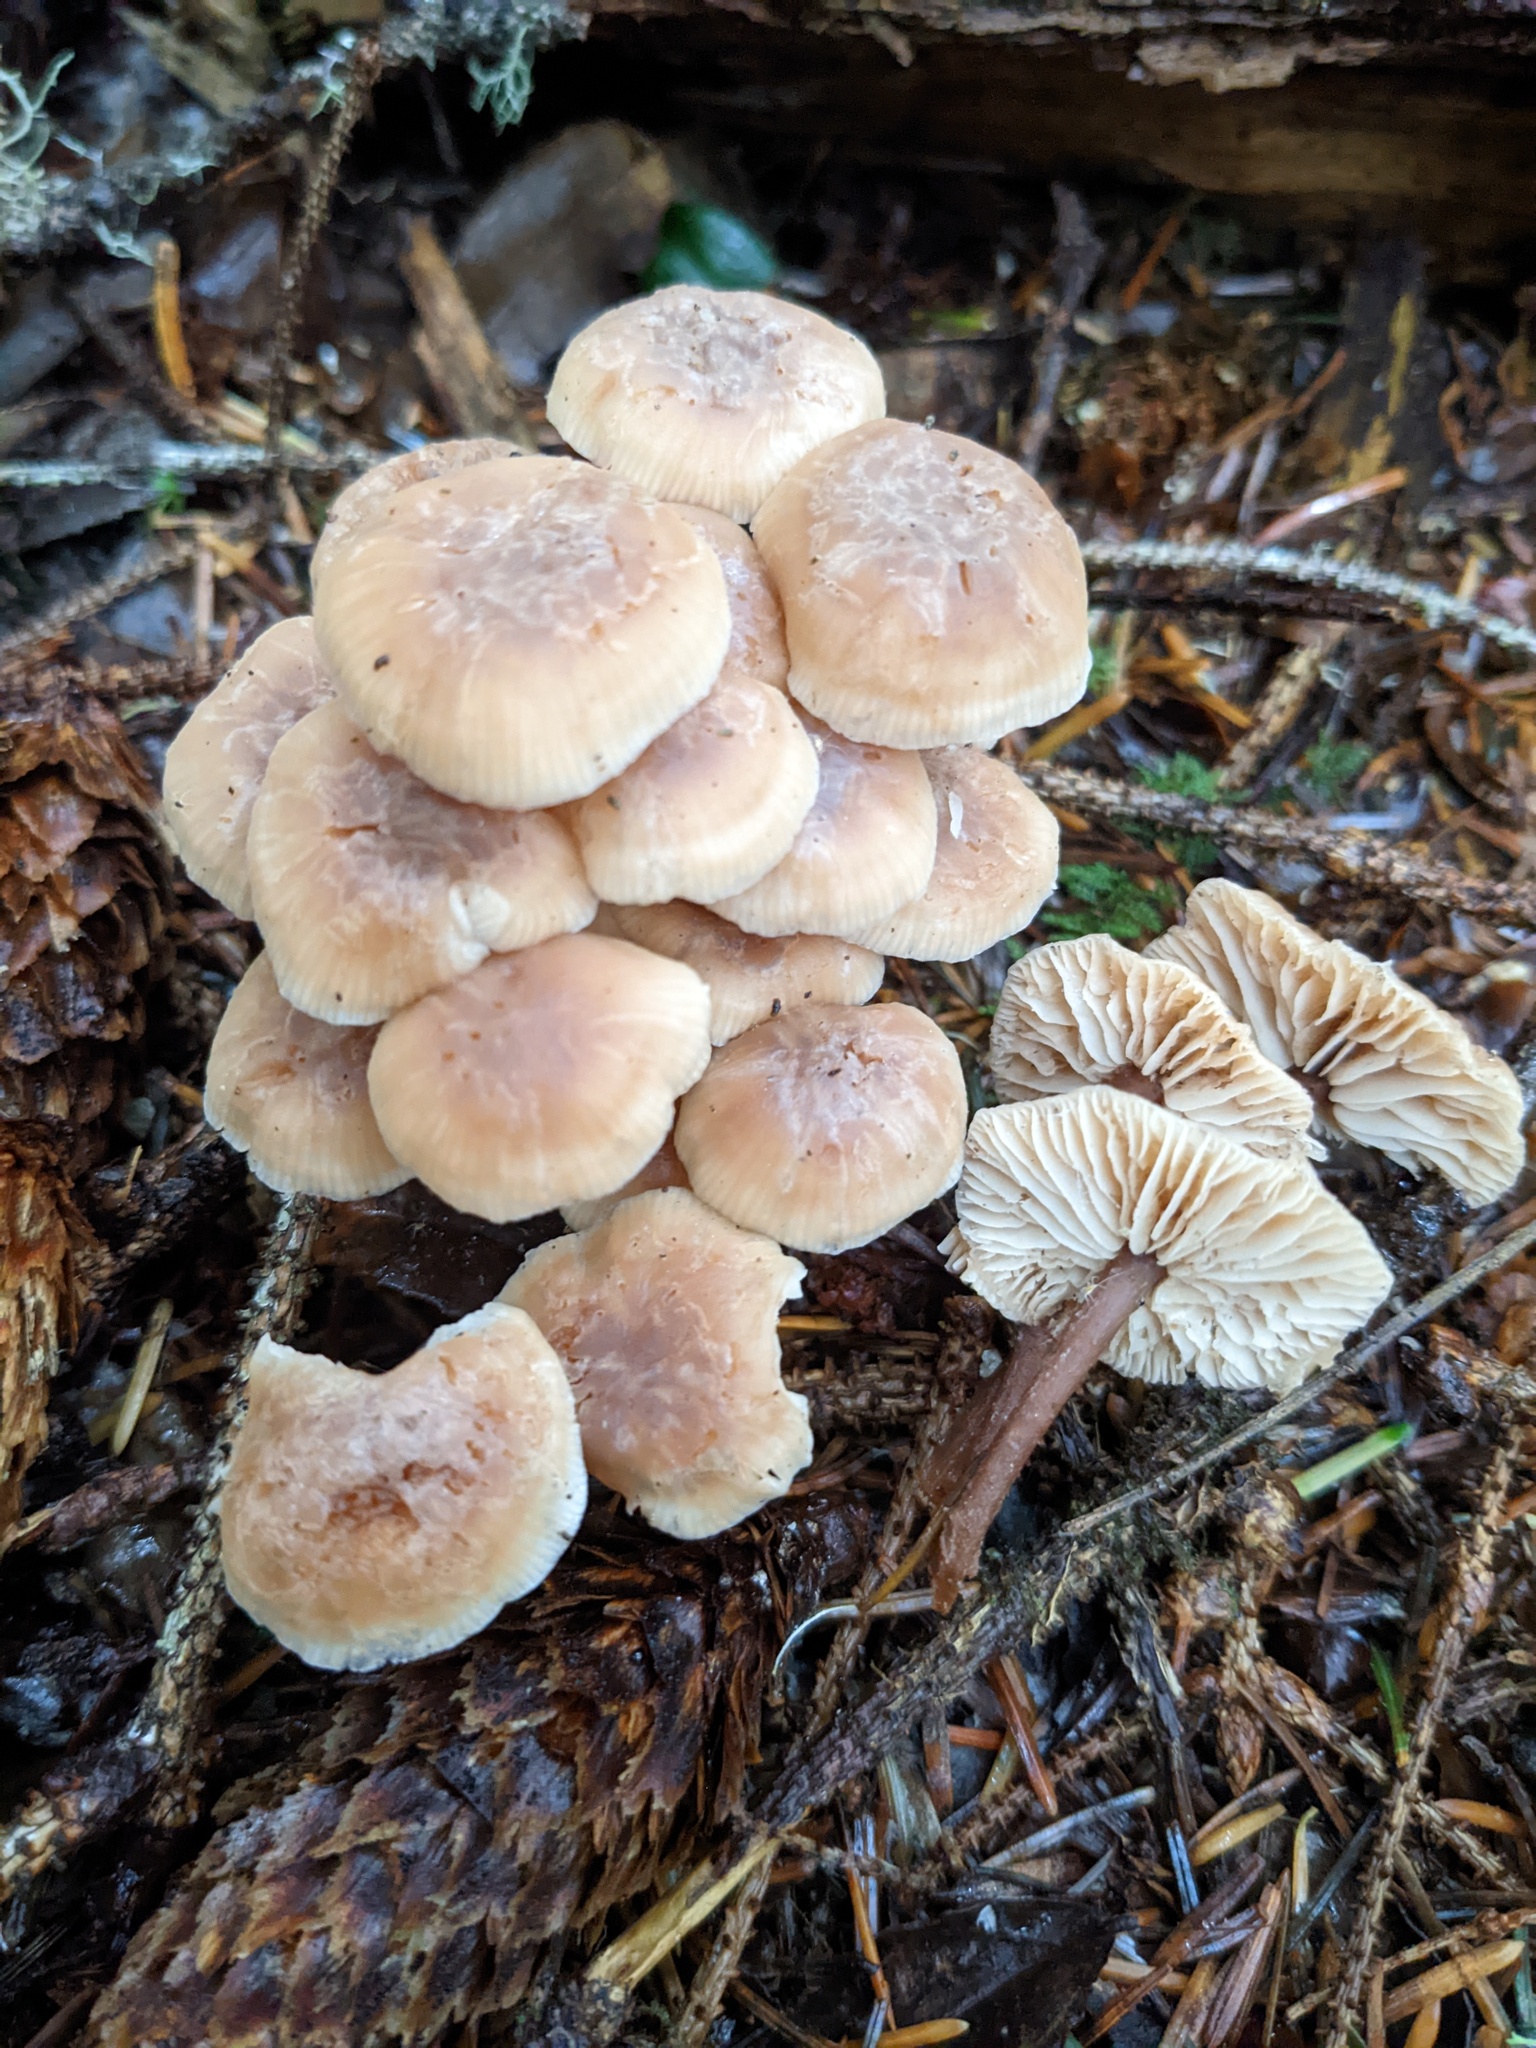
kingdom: Fungi
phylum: Basidiomycota
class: Agaricomycetes
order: Agaricales
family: Omphalotaceae
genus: Connopus
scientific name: Connopus acervatus
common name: Cluster cap
